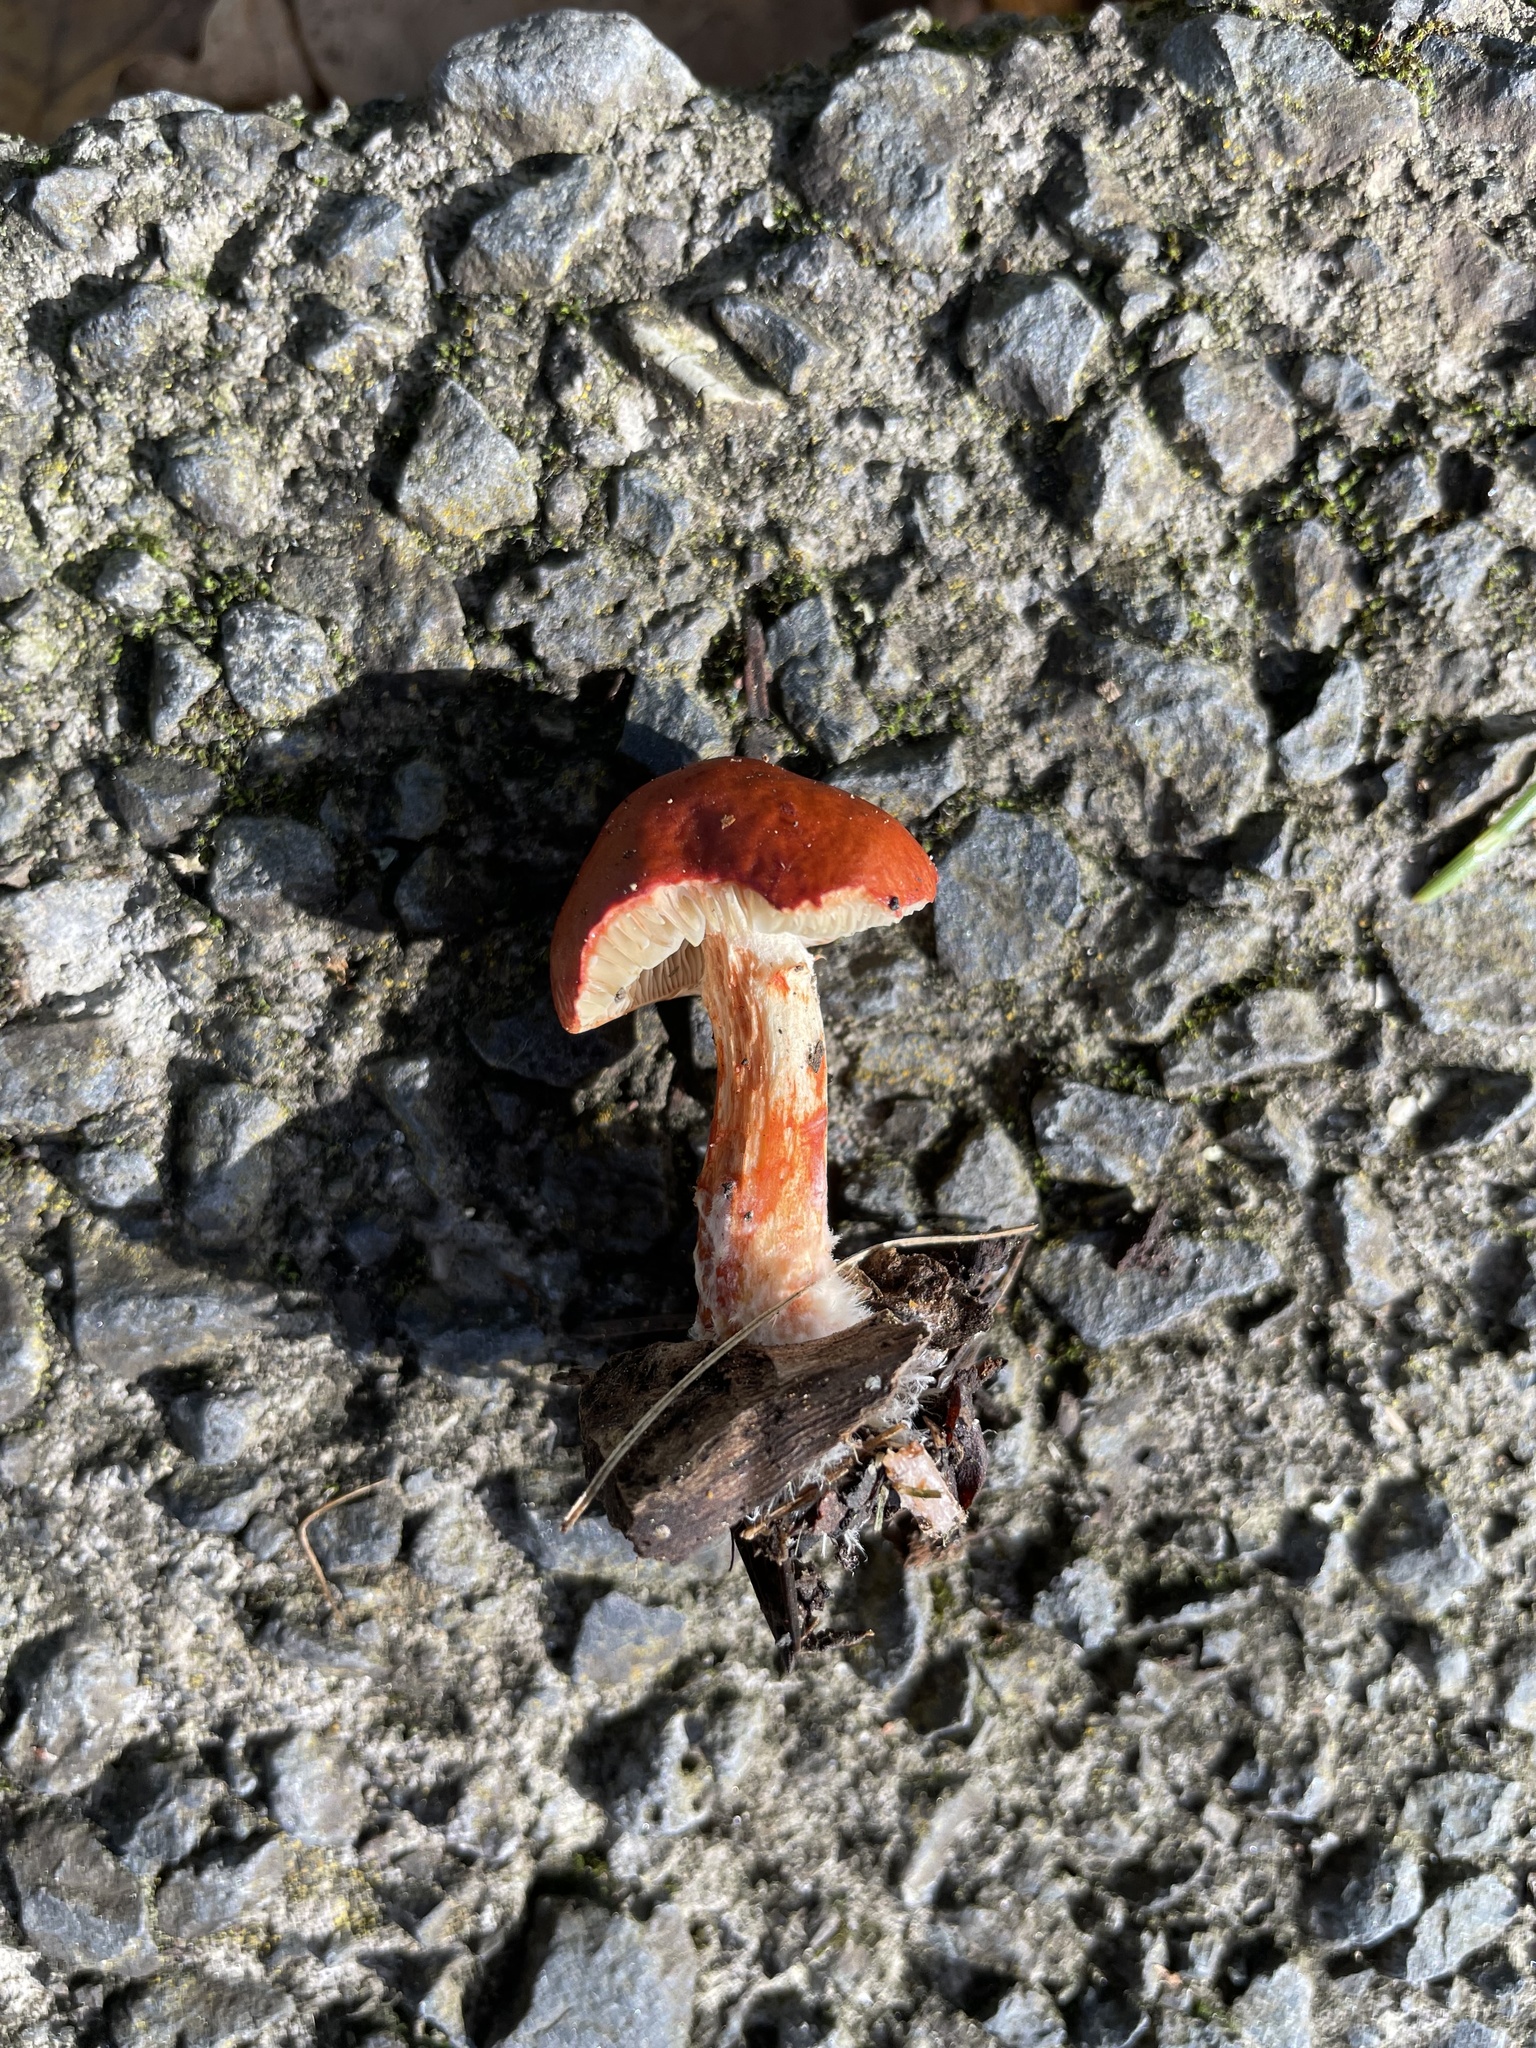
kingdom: Fungi
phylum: Basidiomycota
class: Agaricomycetes
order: Agaricales
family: Strophariaceae
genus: Leratiomyces
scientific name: Leratiomyces ceres
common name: Redlead roundhead
